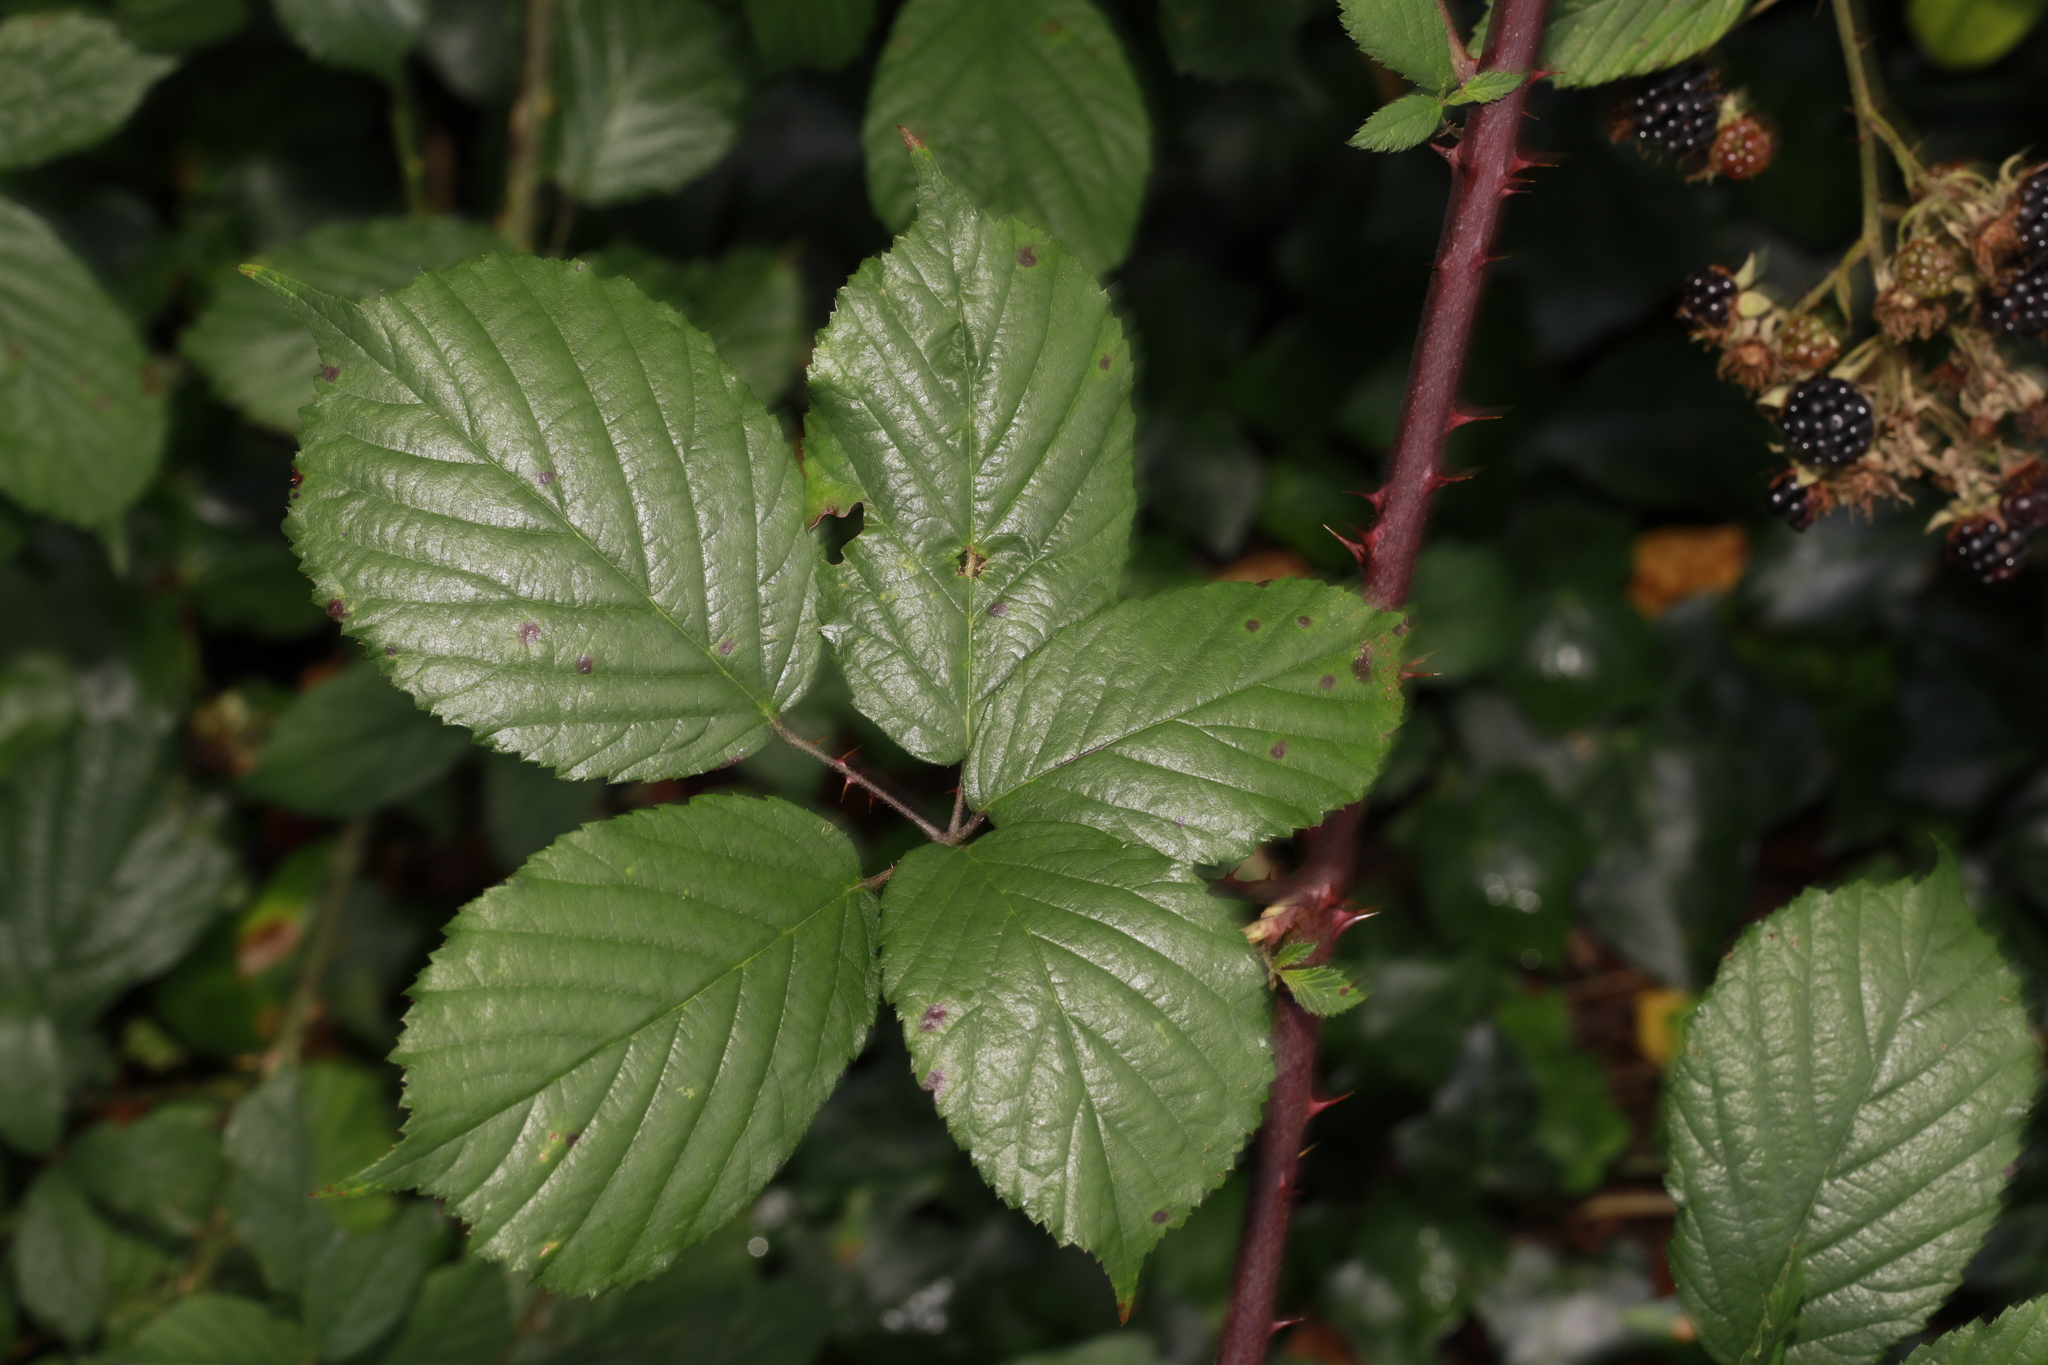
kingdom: Plantae
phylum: Tracheophyta
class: Magnoliopsida
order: Rosales
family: Rosaceae
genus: Rubus
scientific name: Rubus cissburiensis
